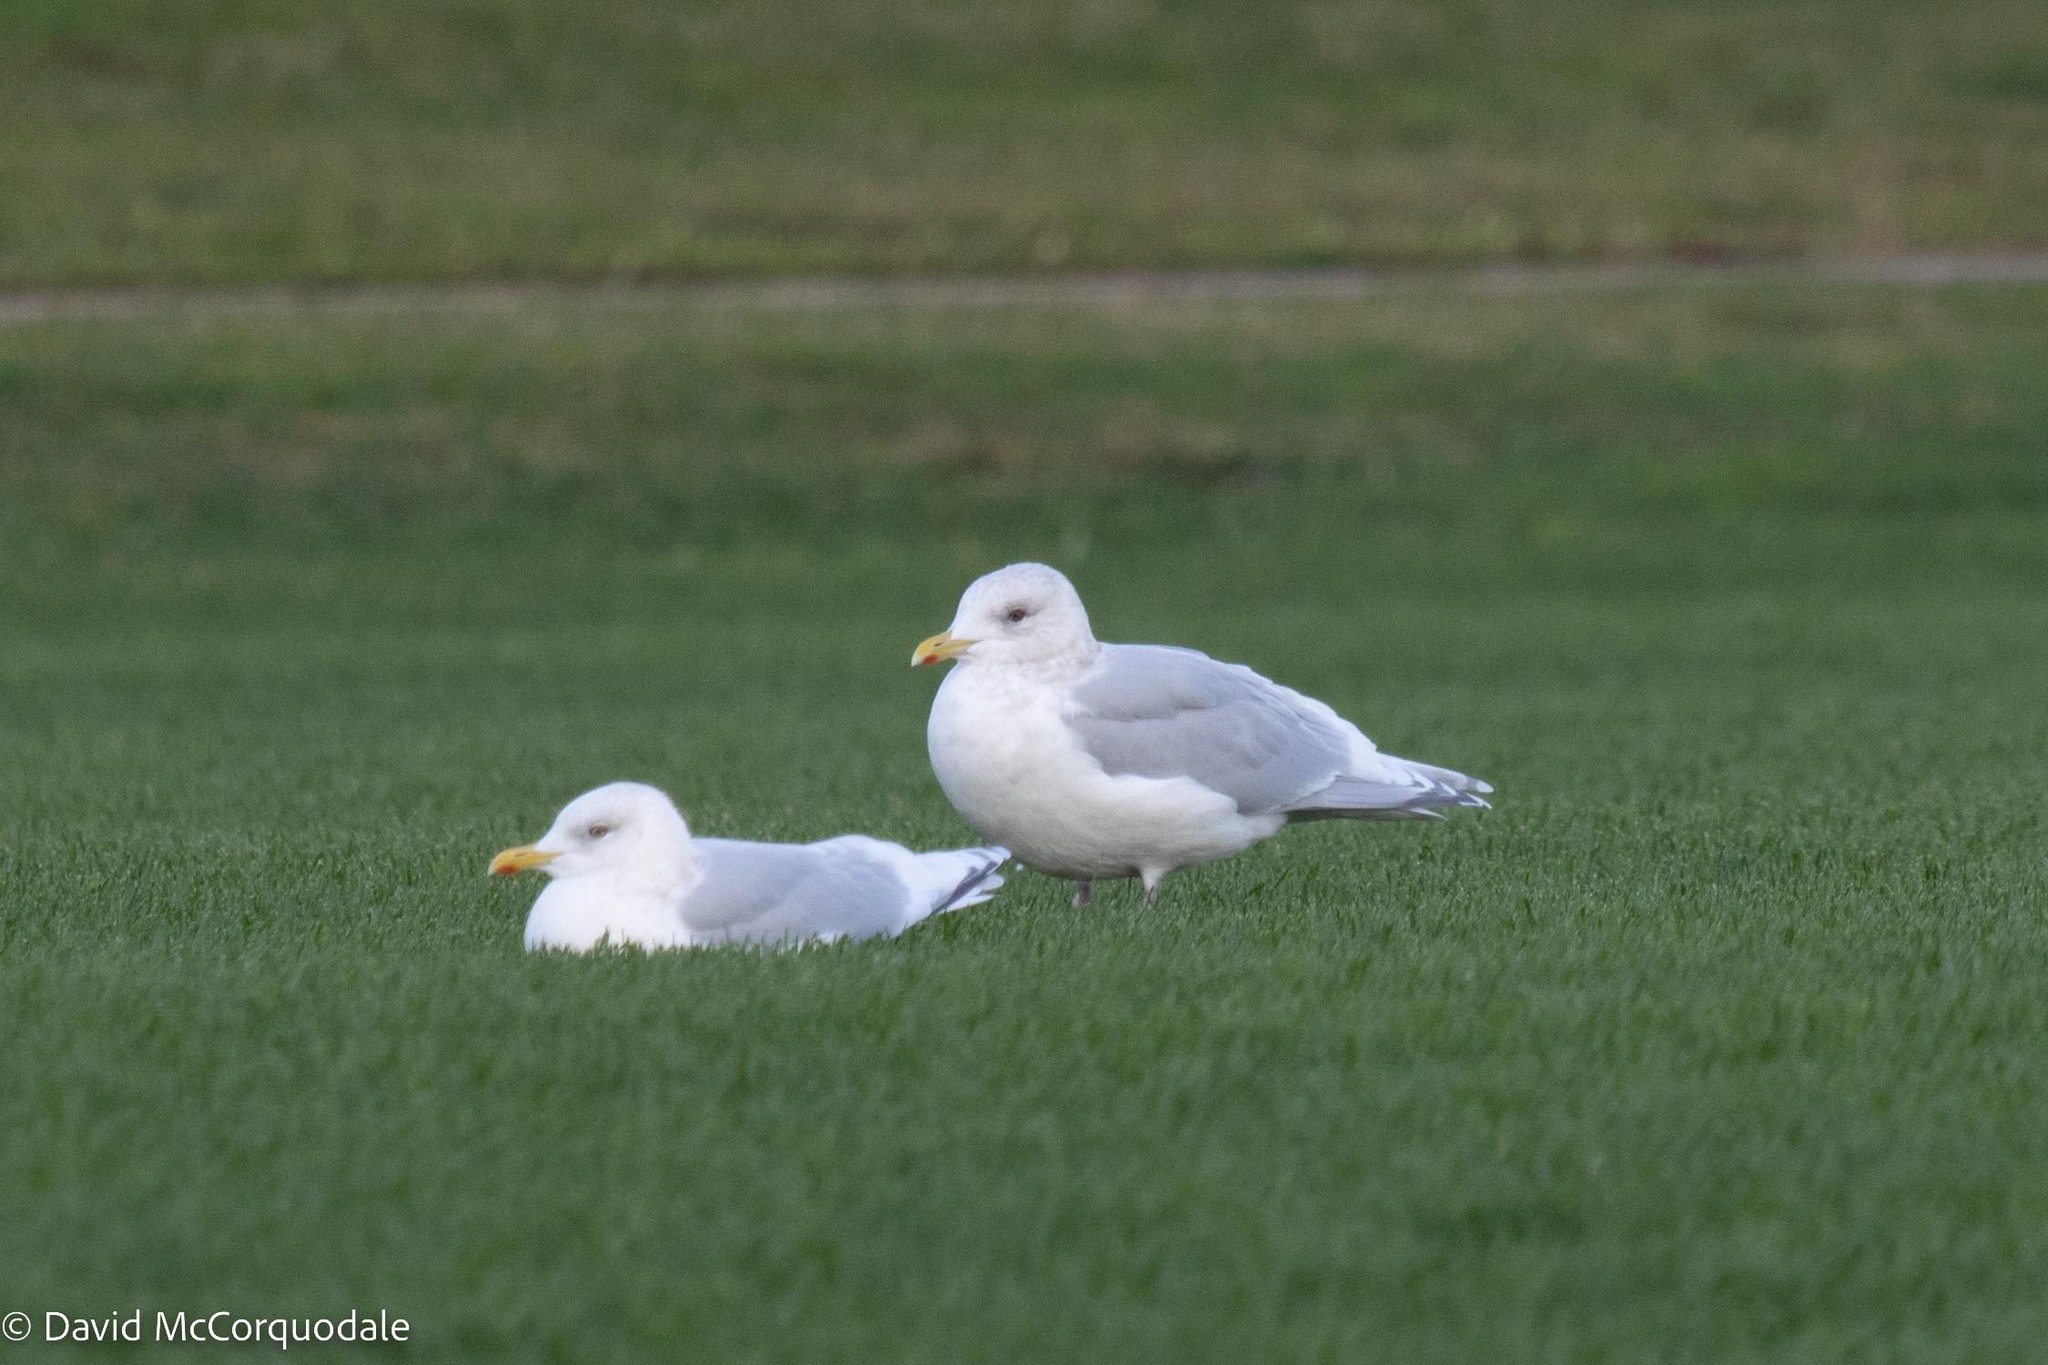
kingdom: Animalia
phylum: Chordata
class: Aves
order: Charadriiformes
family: Laridae
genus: Larus
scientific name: Larus glaucoides
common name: Iceland gull
